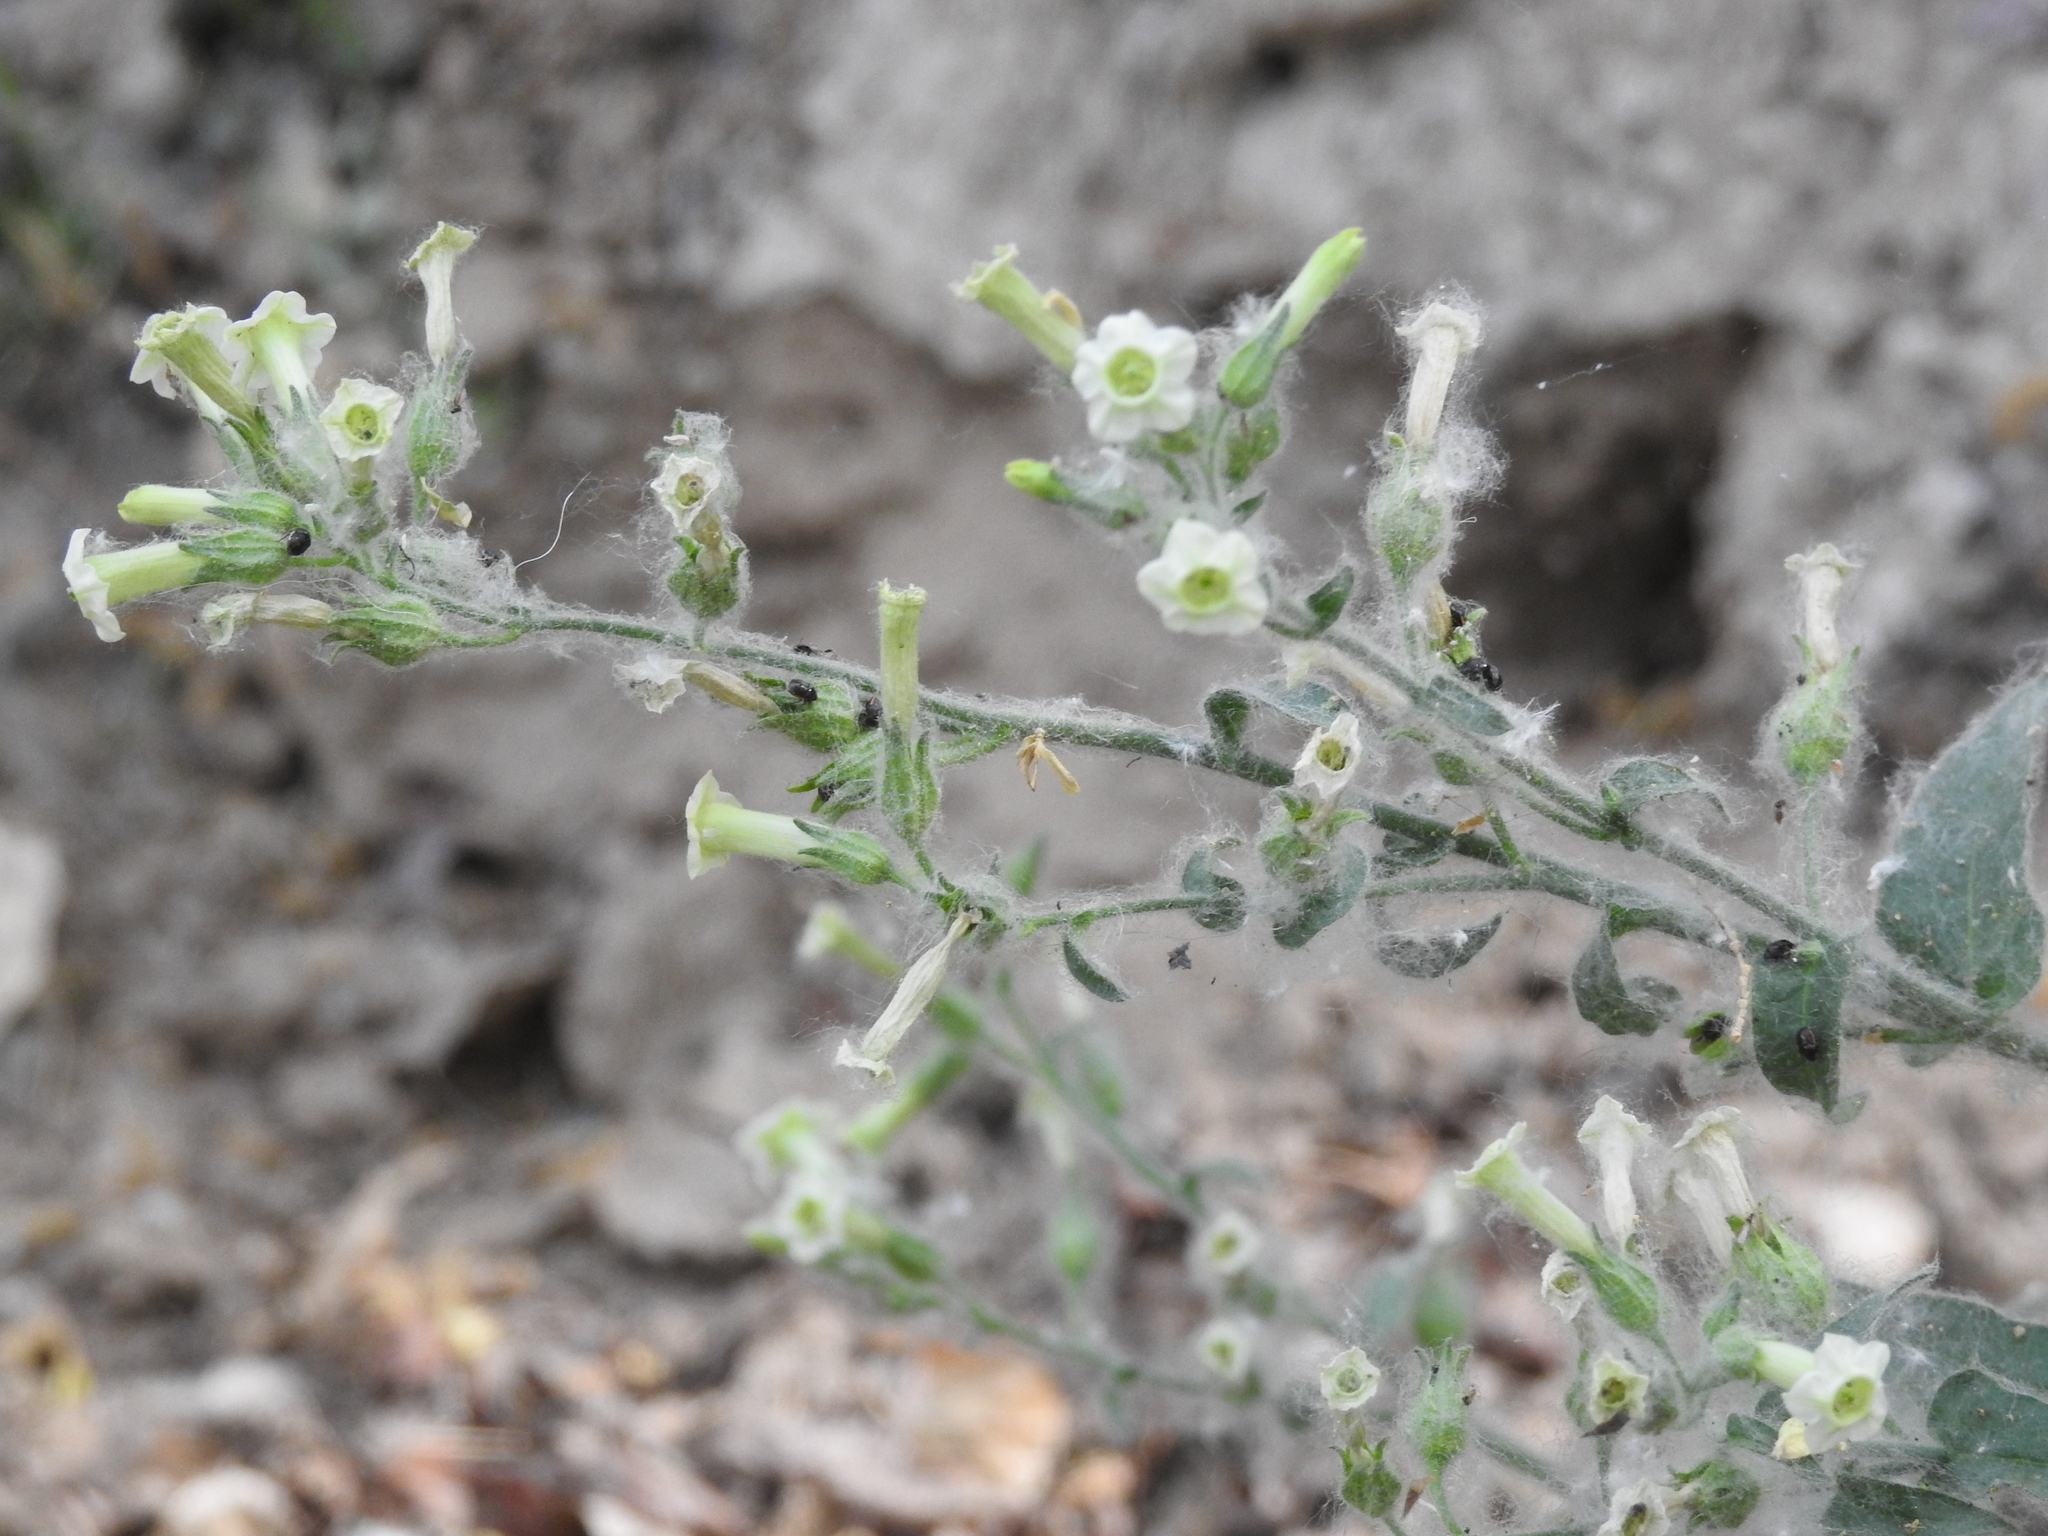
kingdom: Plantae
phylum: Tracheophyta
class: Magnoliopsida
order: Solanales
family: Solanaceae
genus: Nicotiana
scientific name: Nicotiana obtusifolia
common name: Desert tobacco
